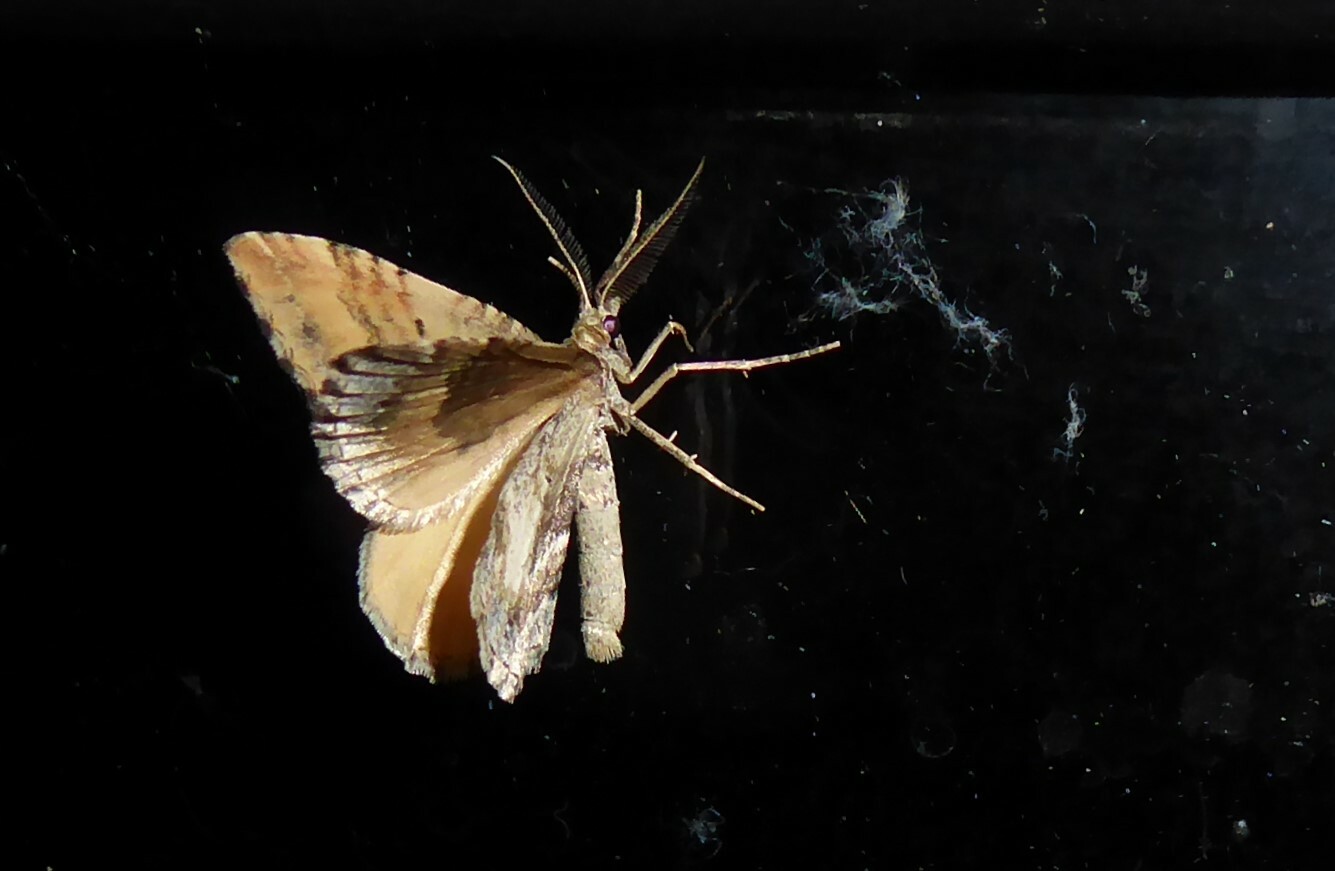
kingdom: Animalia
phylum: Arthropoda
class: Insecta
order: Lepidoptera
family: Geometridae
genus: Asaphodes
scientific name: Asaphodes aegrota
